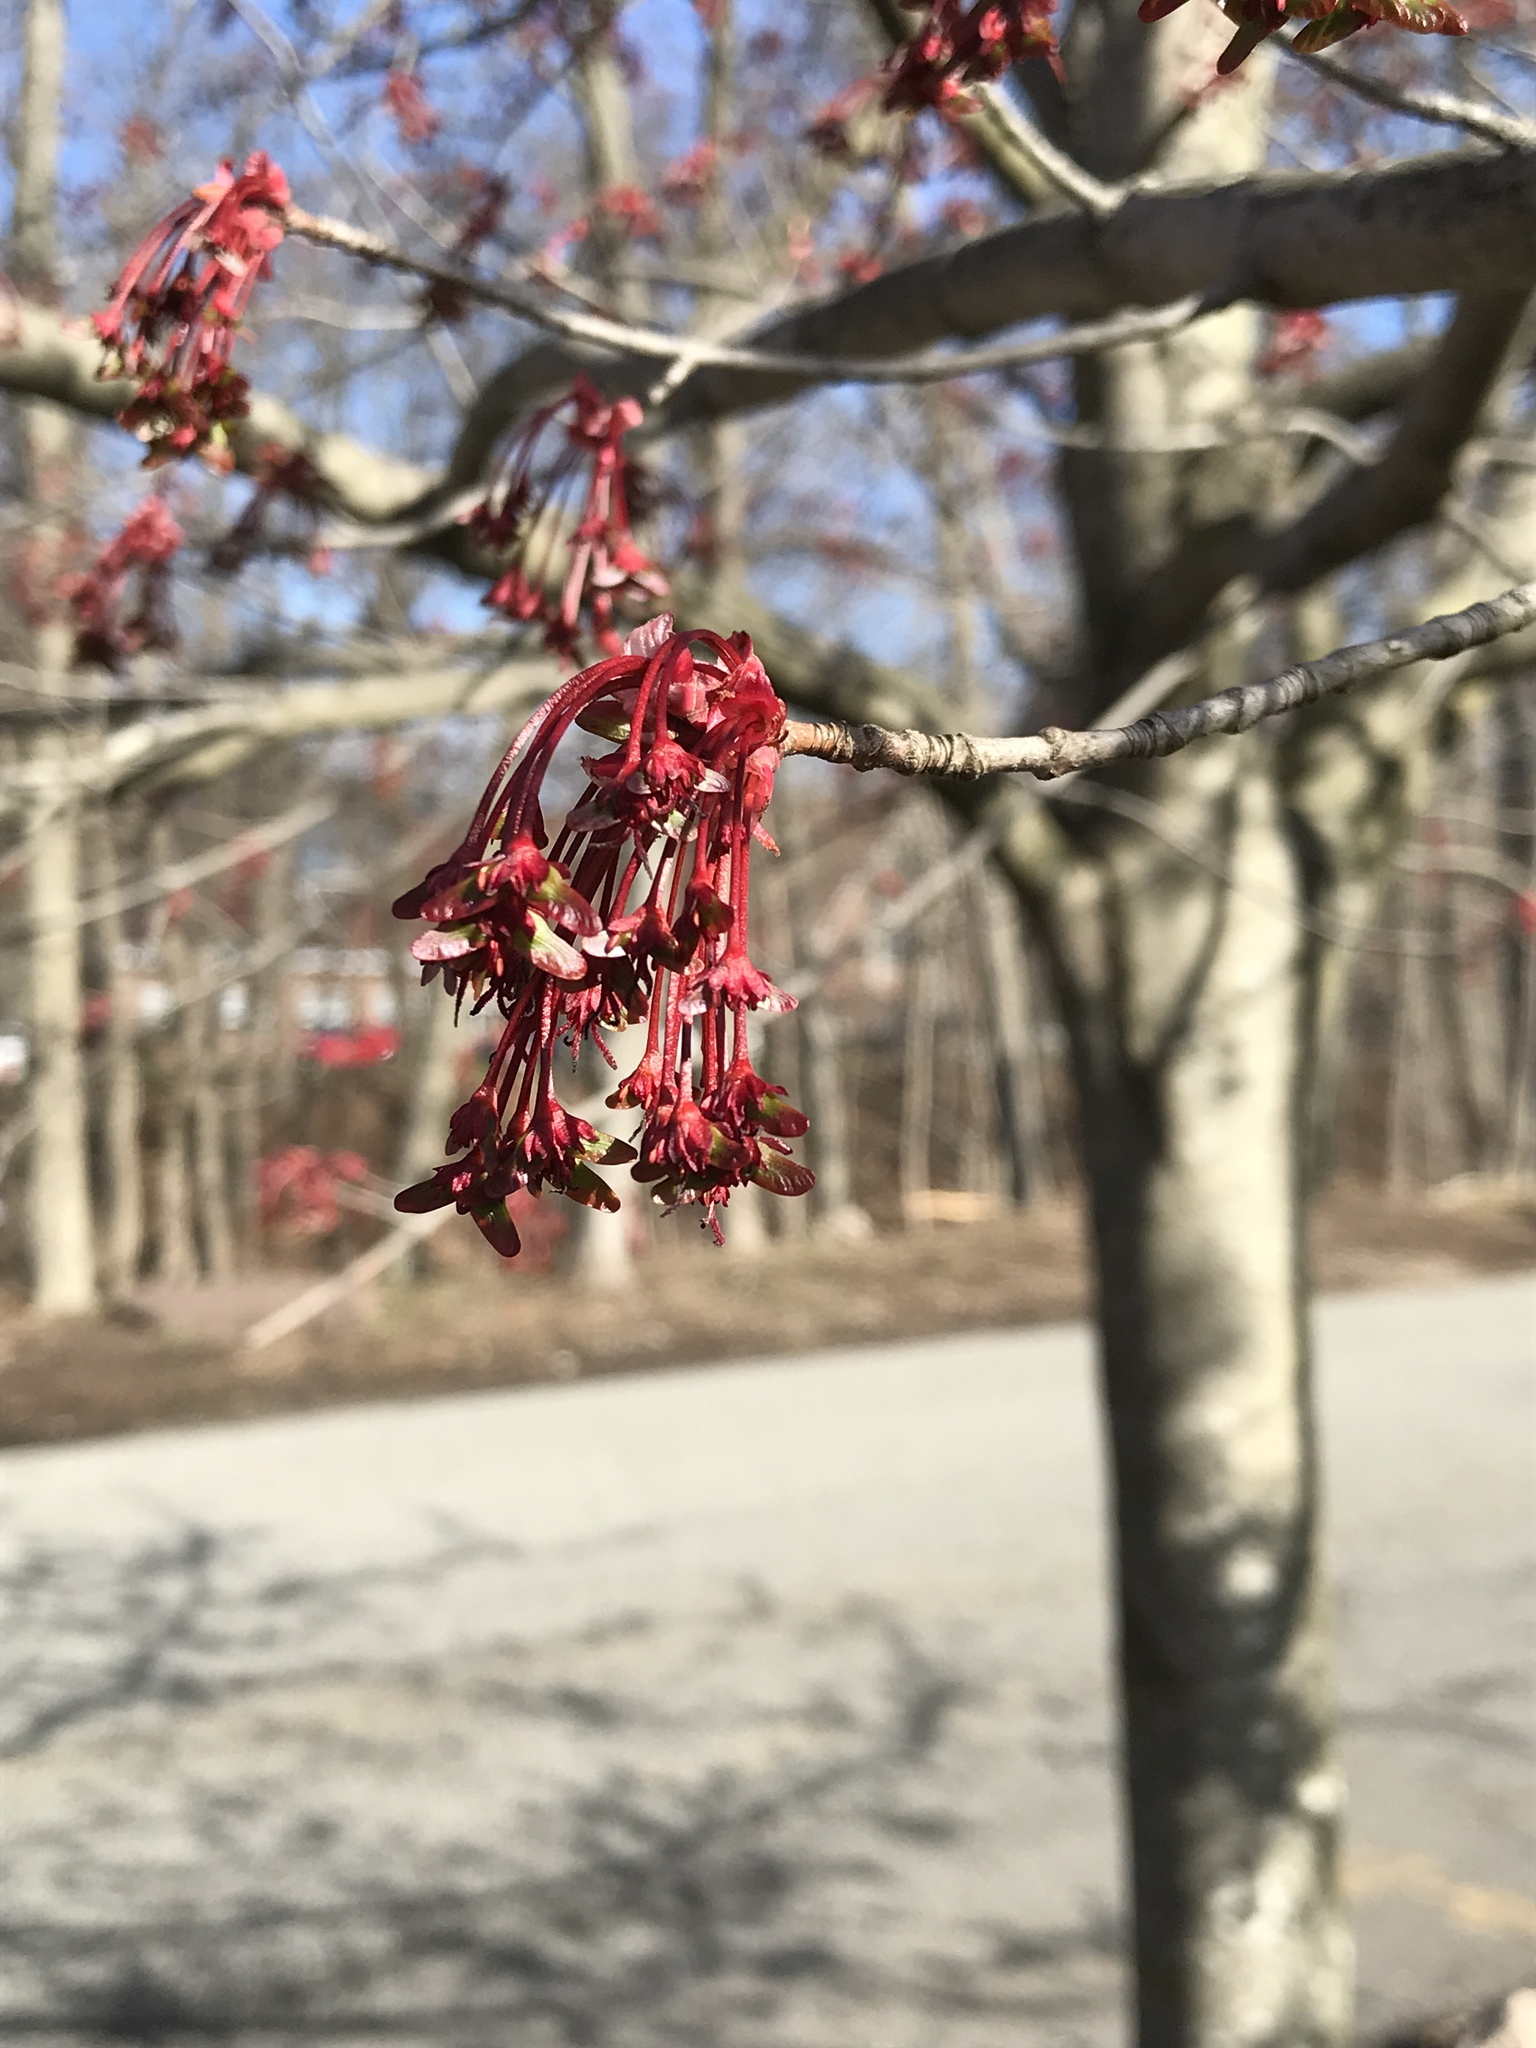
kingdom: Plantae
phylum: Tracheophyta
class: Magnoliopsida
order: Sapindales
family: Sapindaceae
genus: Acer
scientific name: Acer rubrum
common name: Red maple
